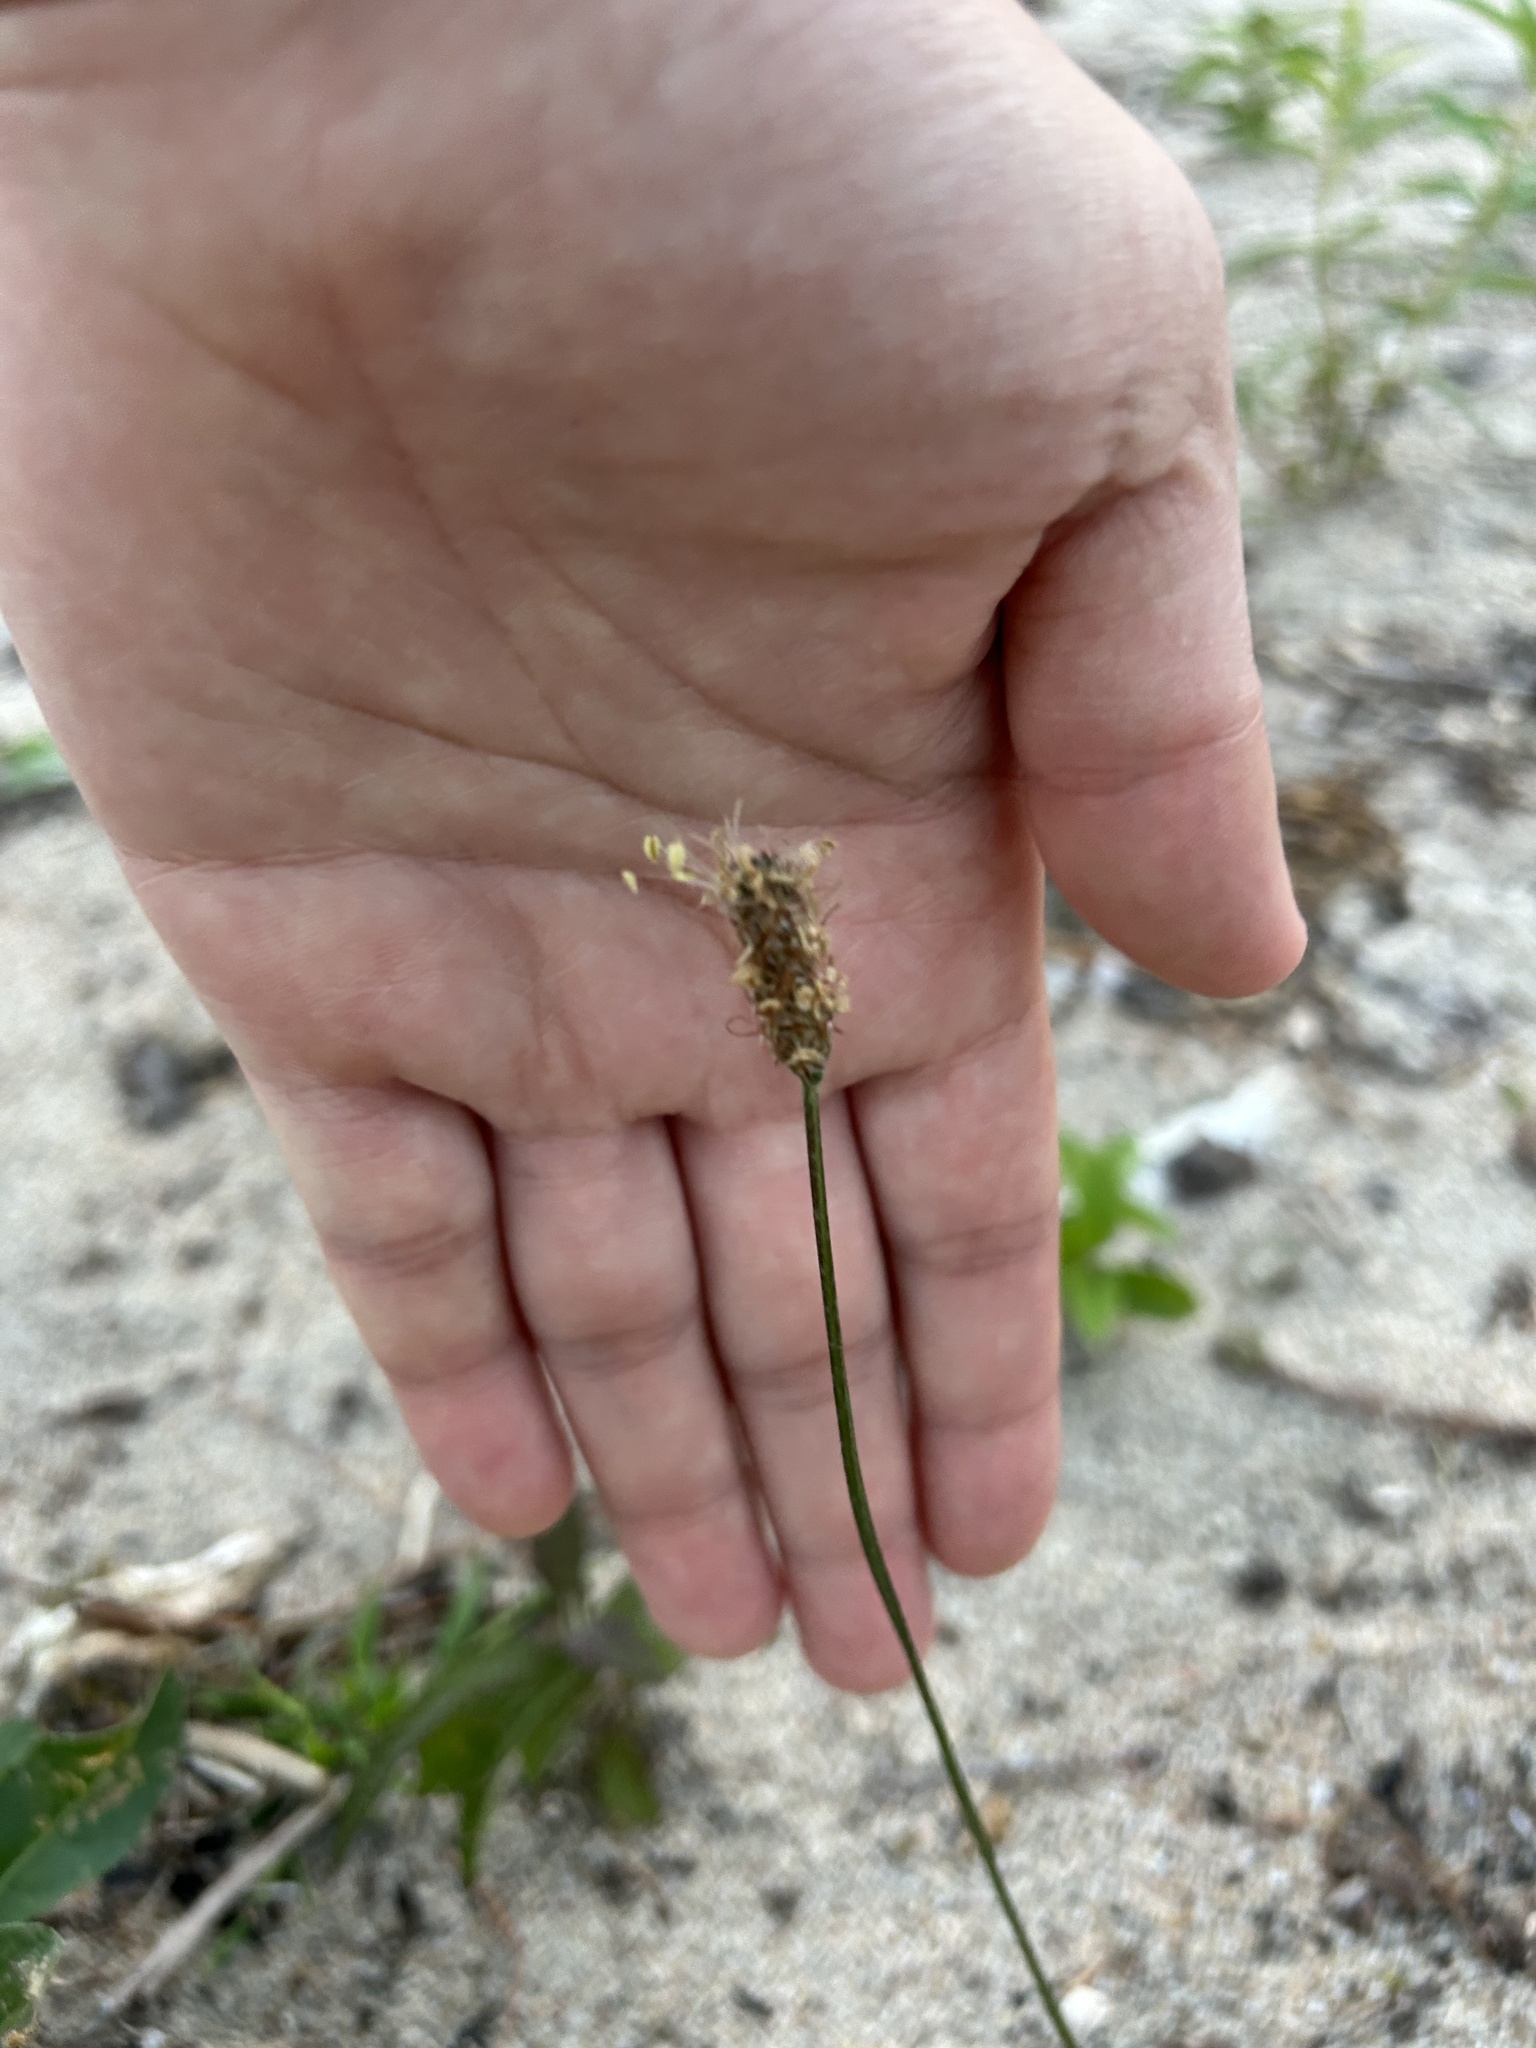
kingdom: Plantae
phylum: Tracheophyta
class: Magnoliopsida
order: Lamiales
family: Plantaginaceae
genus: Plantago
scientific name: Plantago lanceolata
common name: Ribwort plantain
